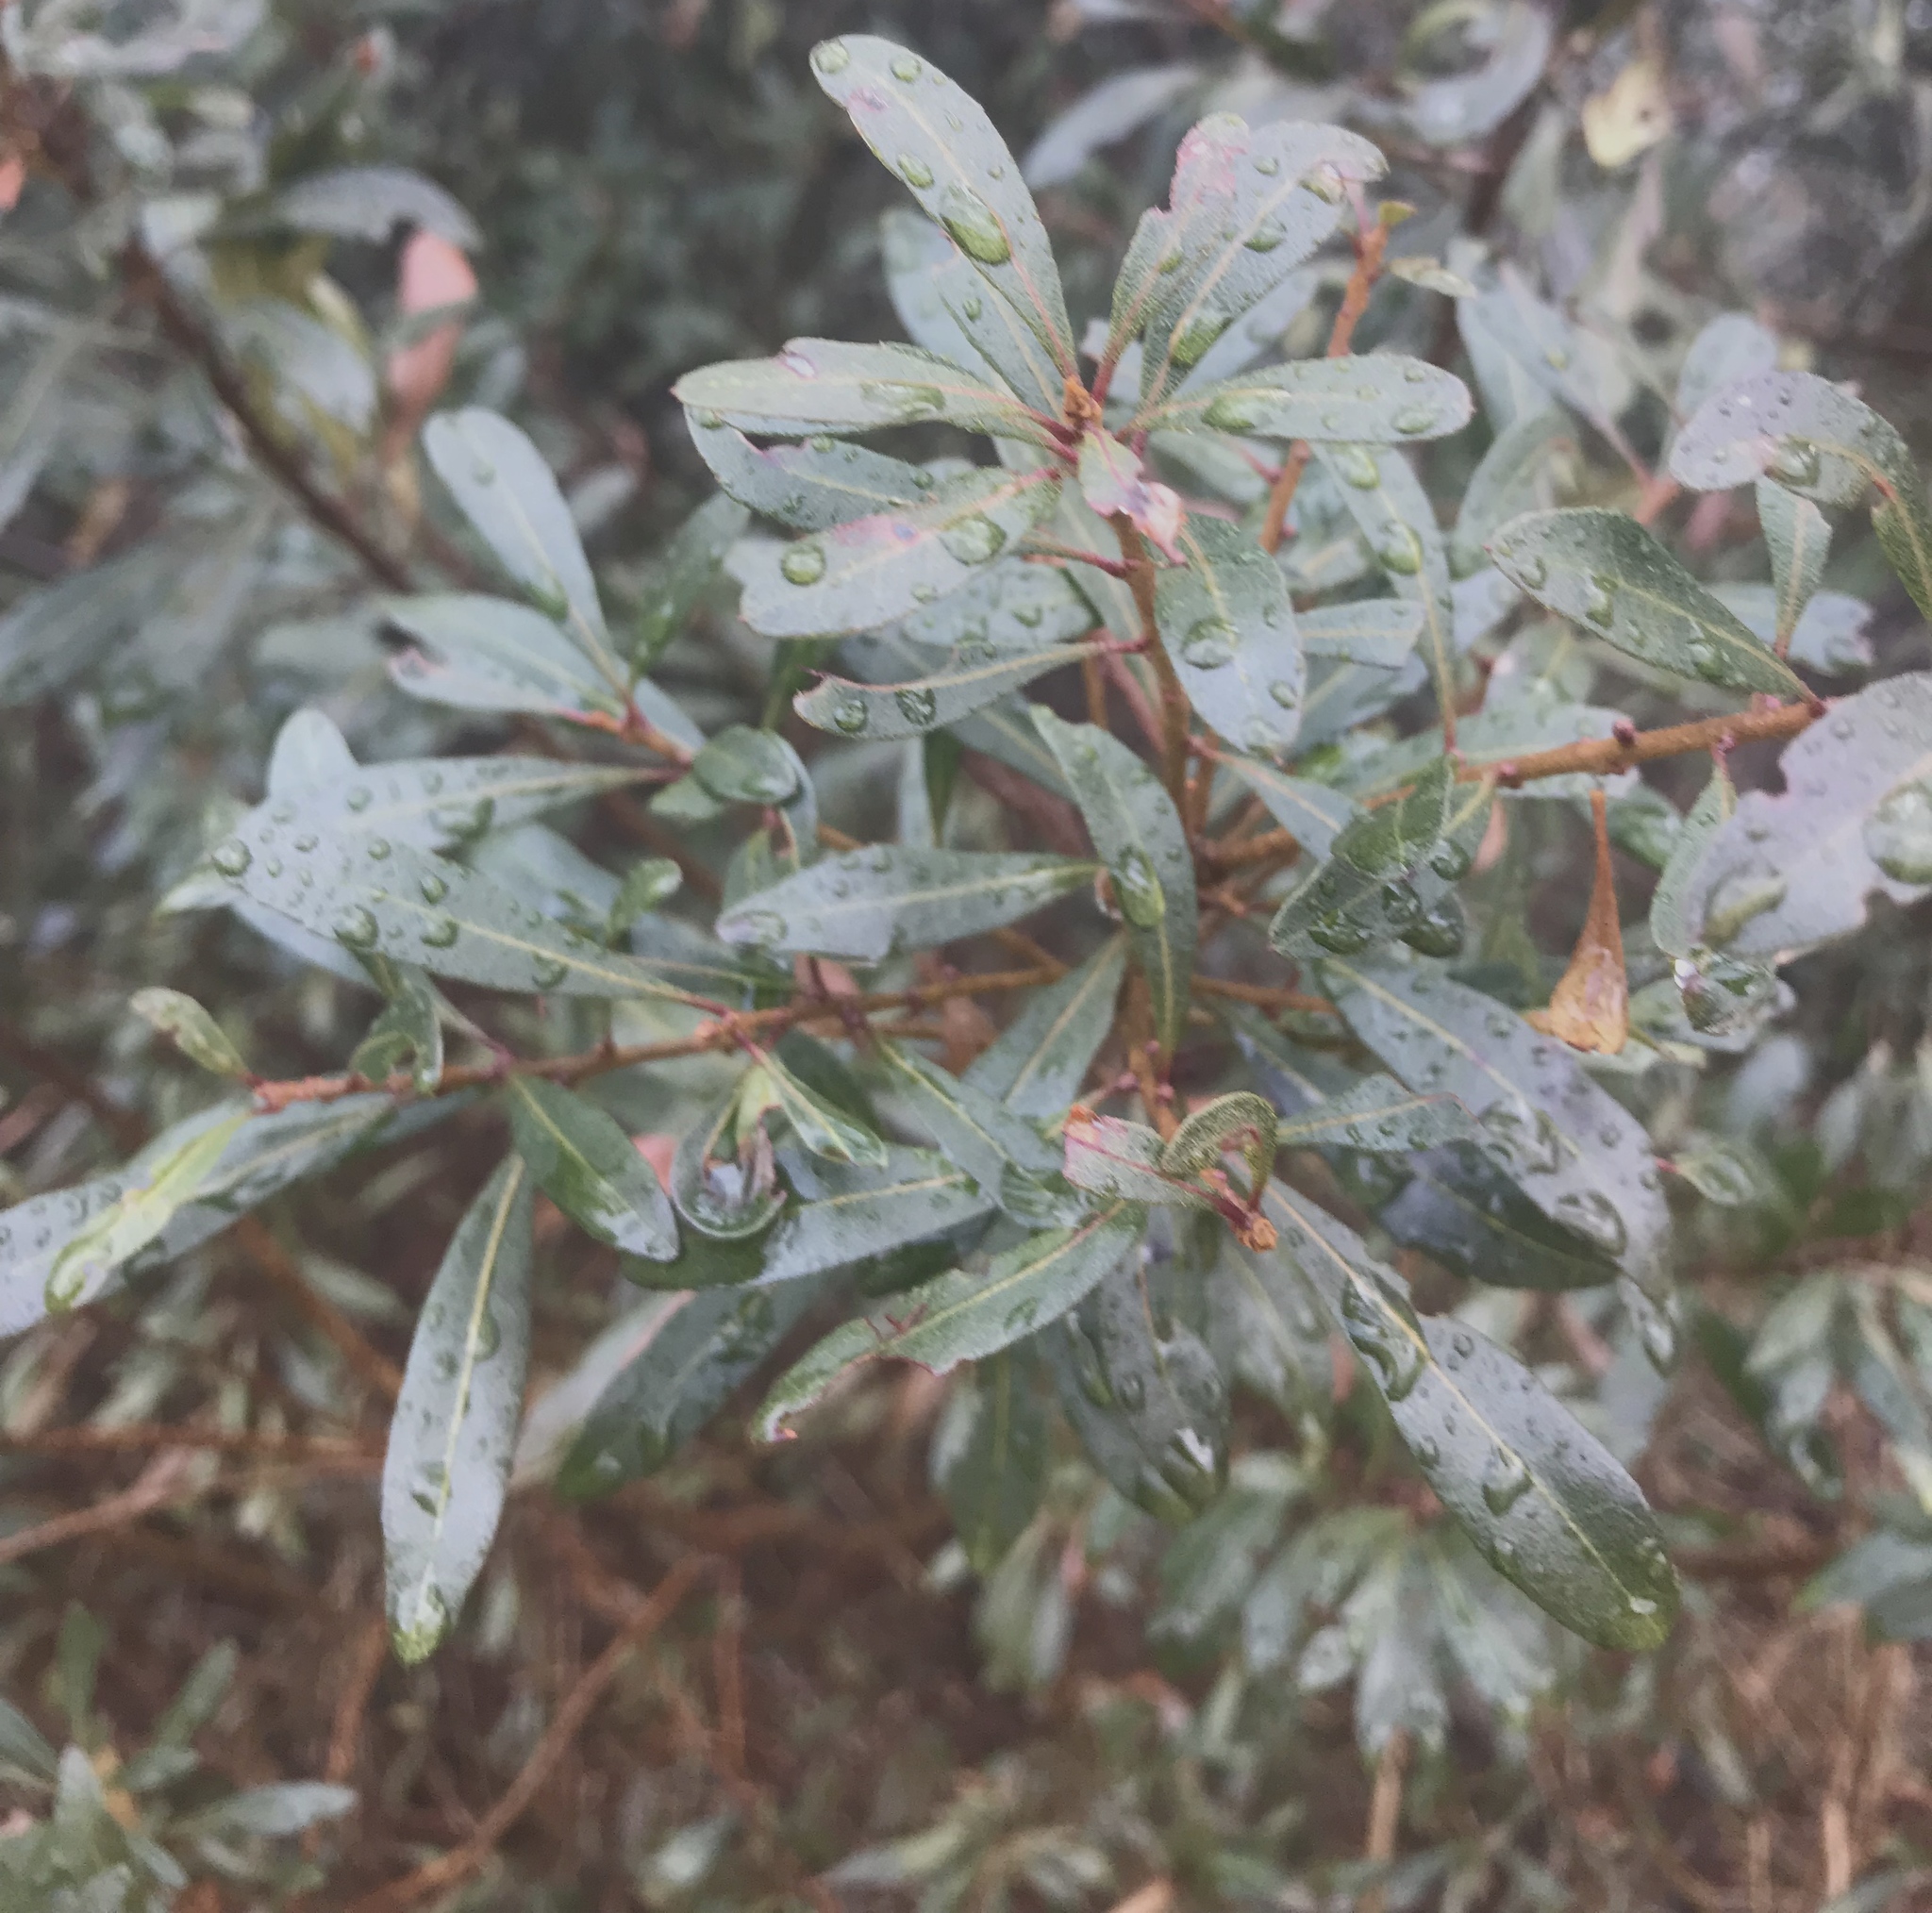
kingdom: Plantae
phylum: Tracheophyta
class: Magnoliopsida
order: Fagales
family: Myricaceae
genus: Morella
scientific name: Morella cerifera
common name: Wax myrtle
